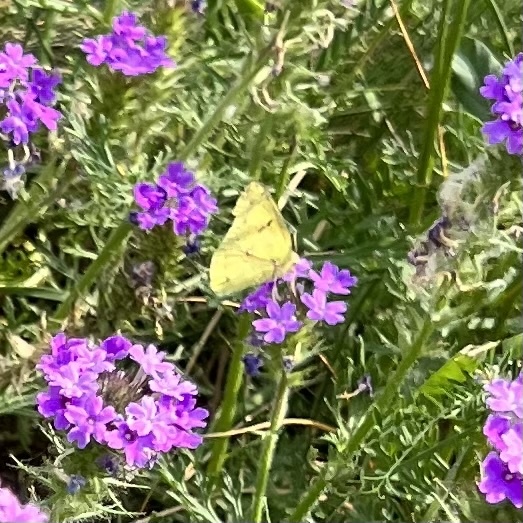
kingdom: Animalia
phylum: Arthropoda
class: Insecta
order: Lepidoptera
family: Pieridae
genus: Colias
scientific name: Colias eurytheme
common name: Alfalfa butterfly
